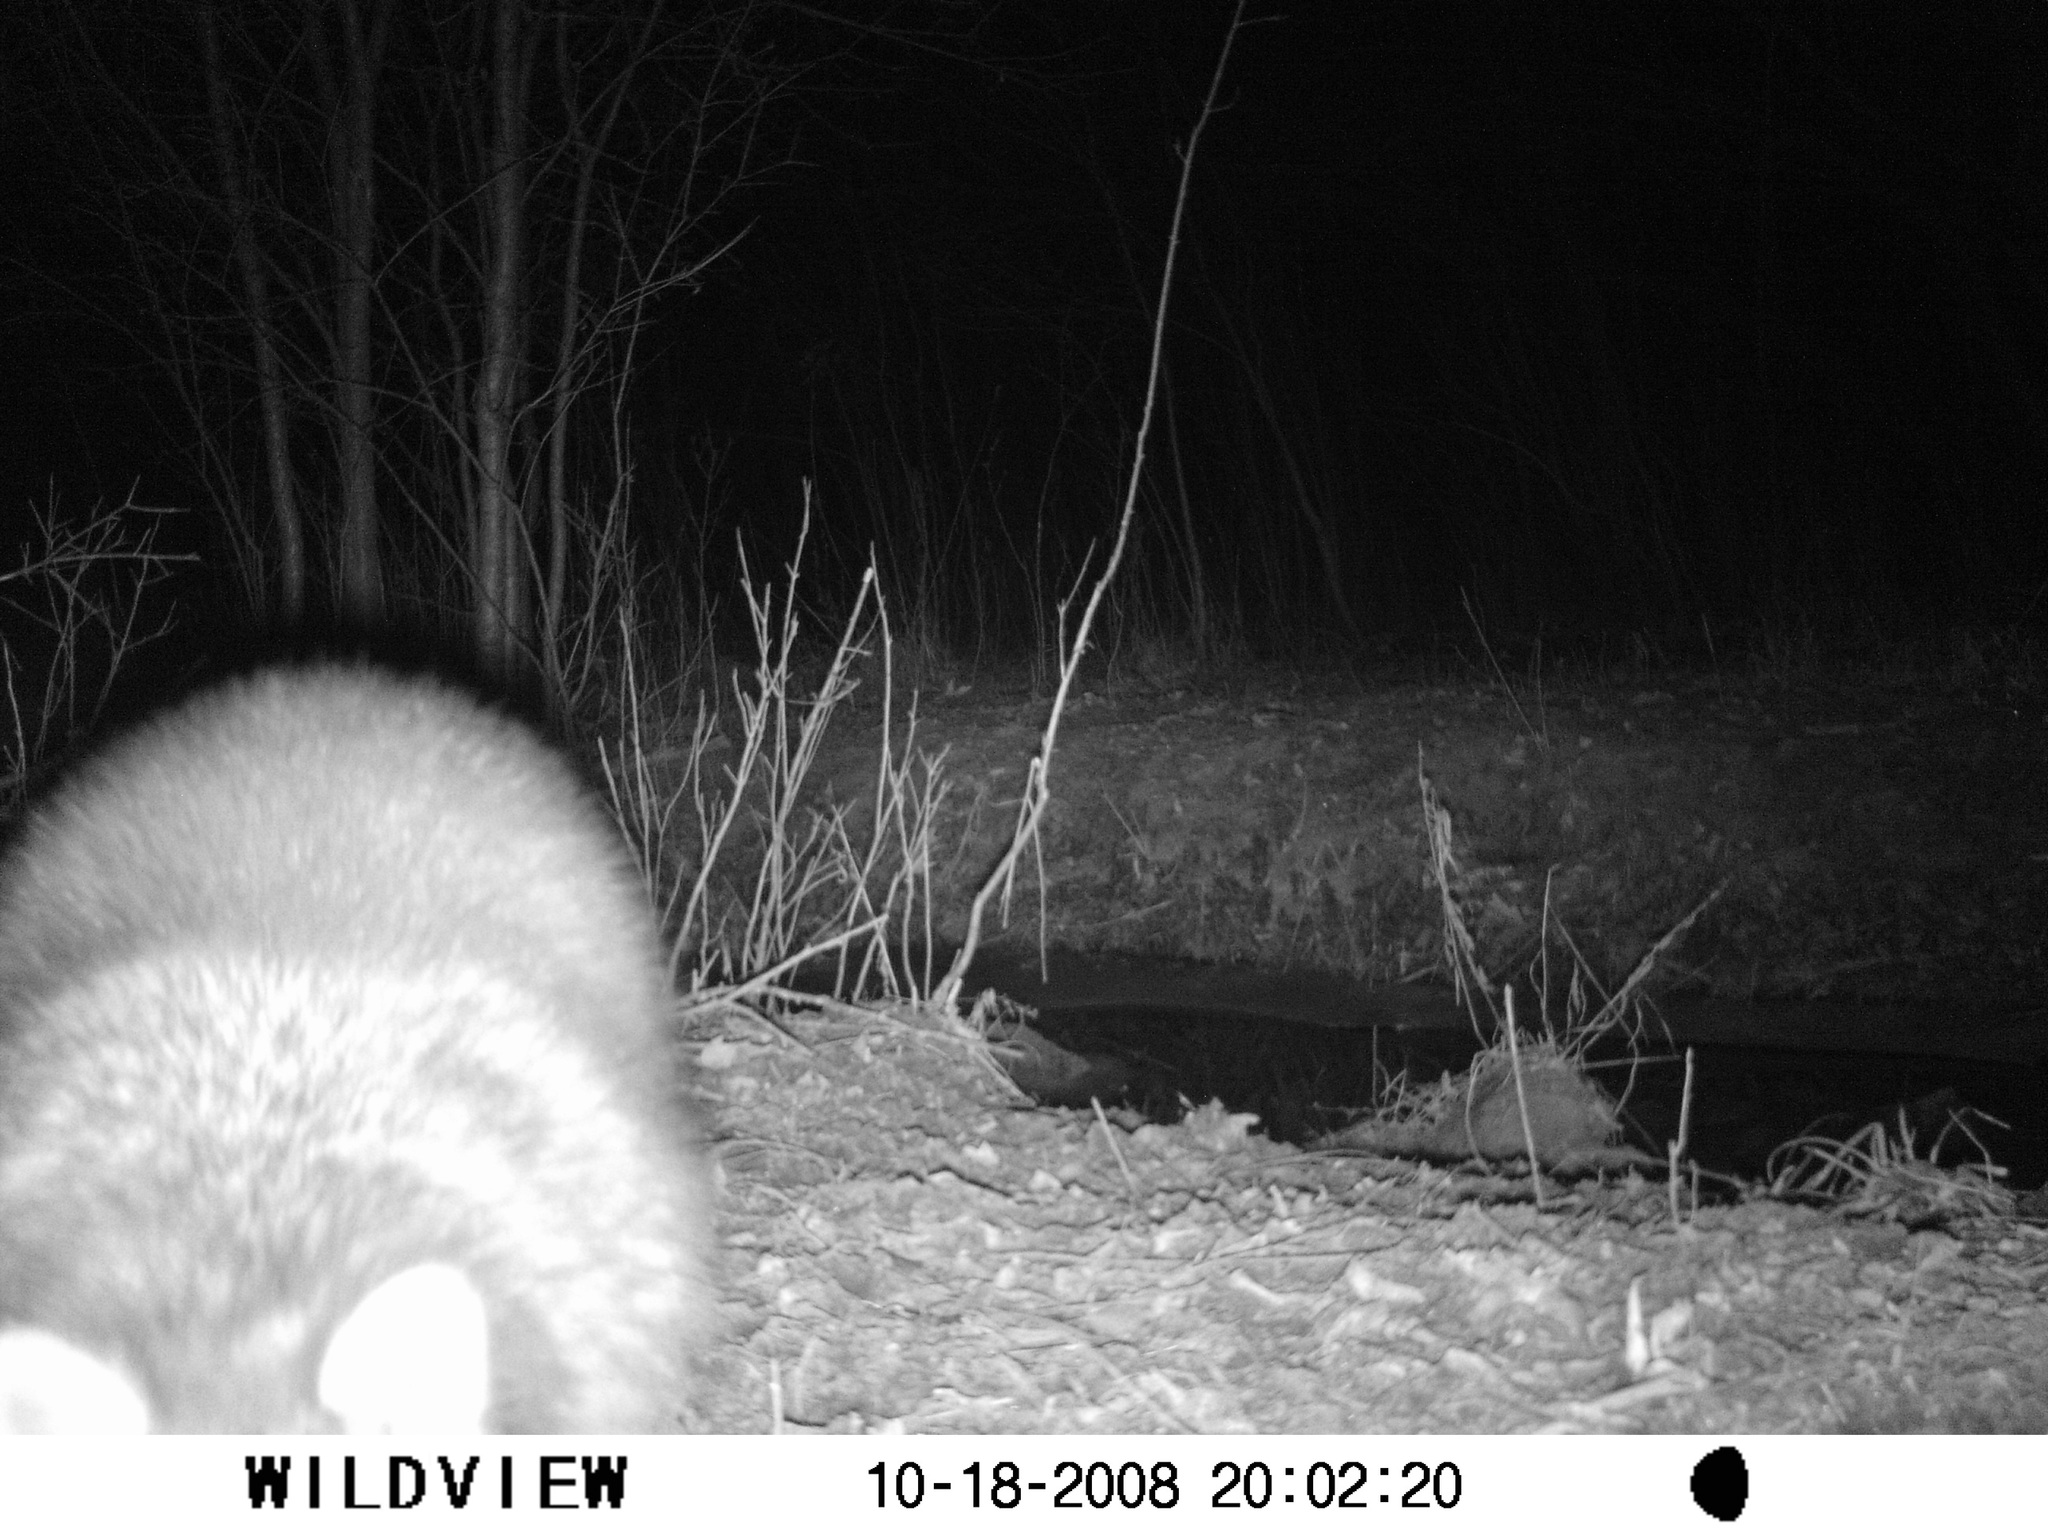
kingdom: Animalia
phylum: Chordata
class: Mammalia
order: Carnivora
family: Procyonidae
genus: Procyon
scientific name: Procyon lotor
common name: Raccoon
